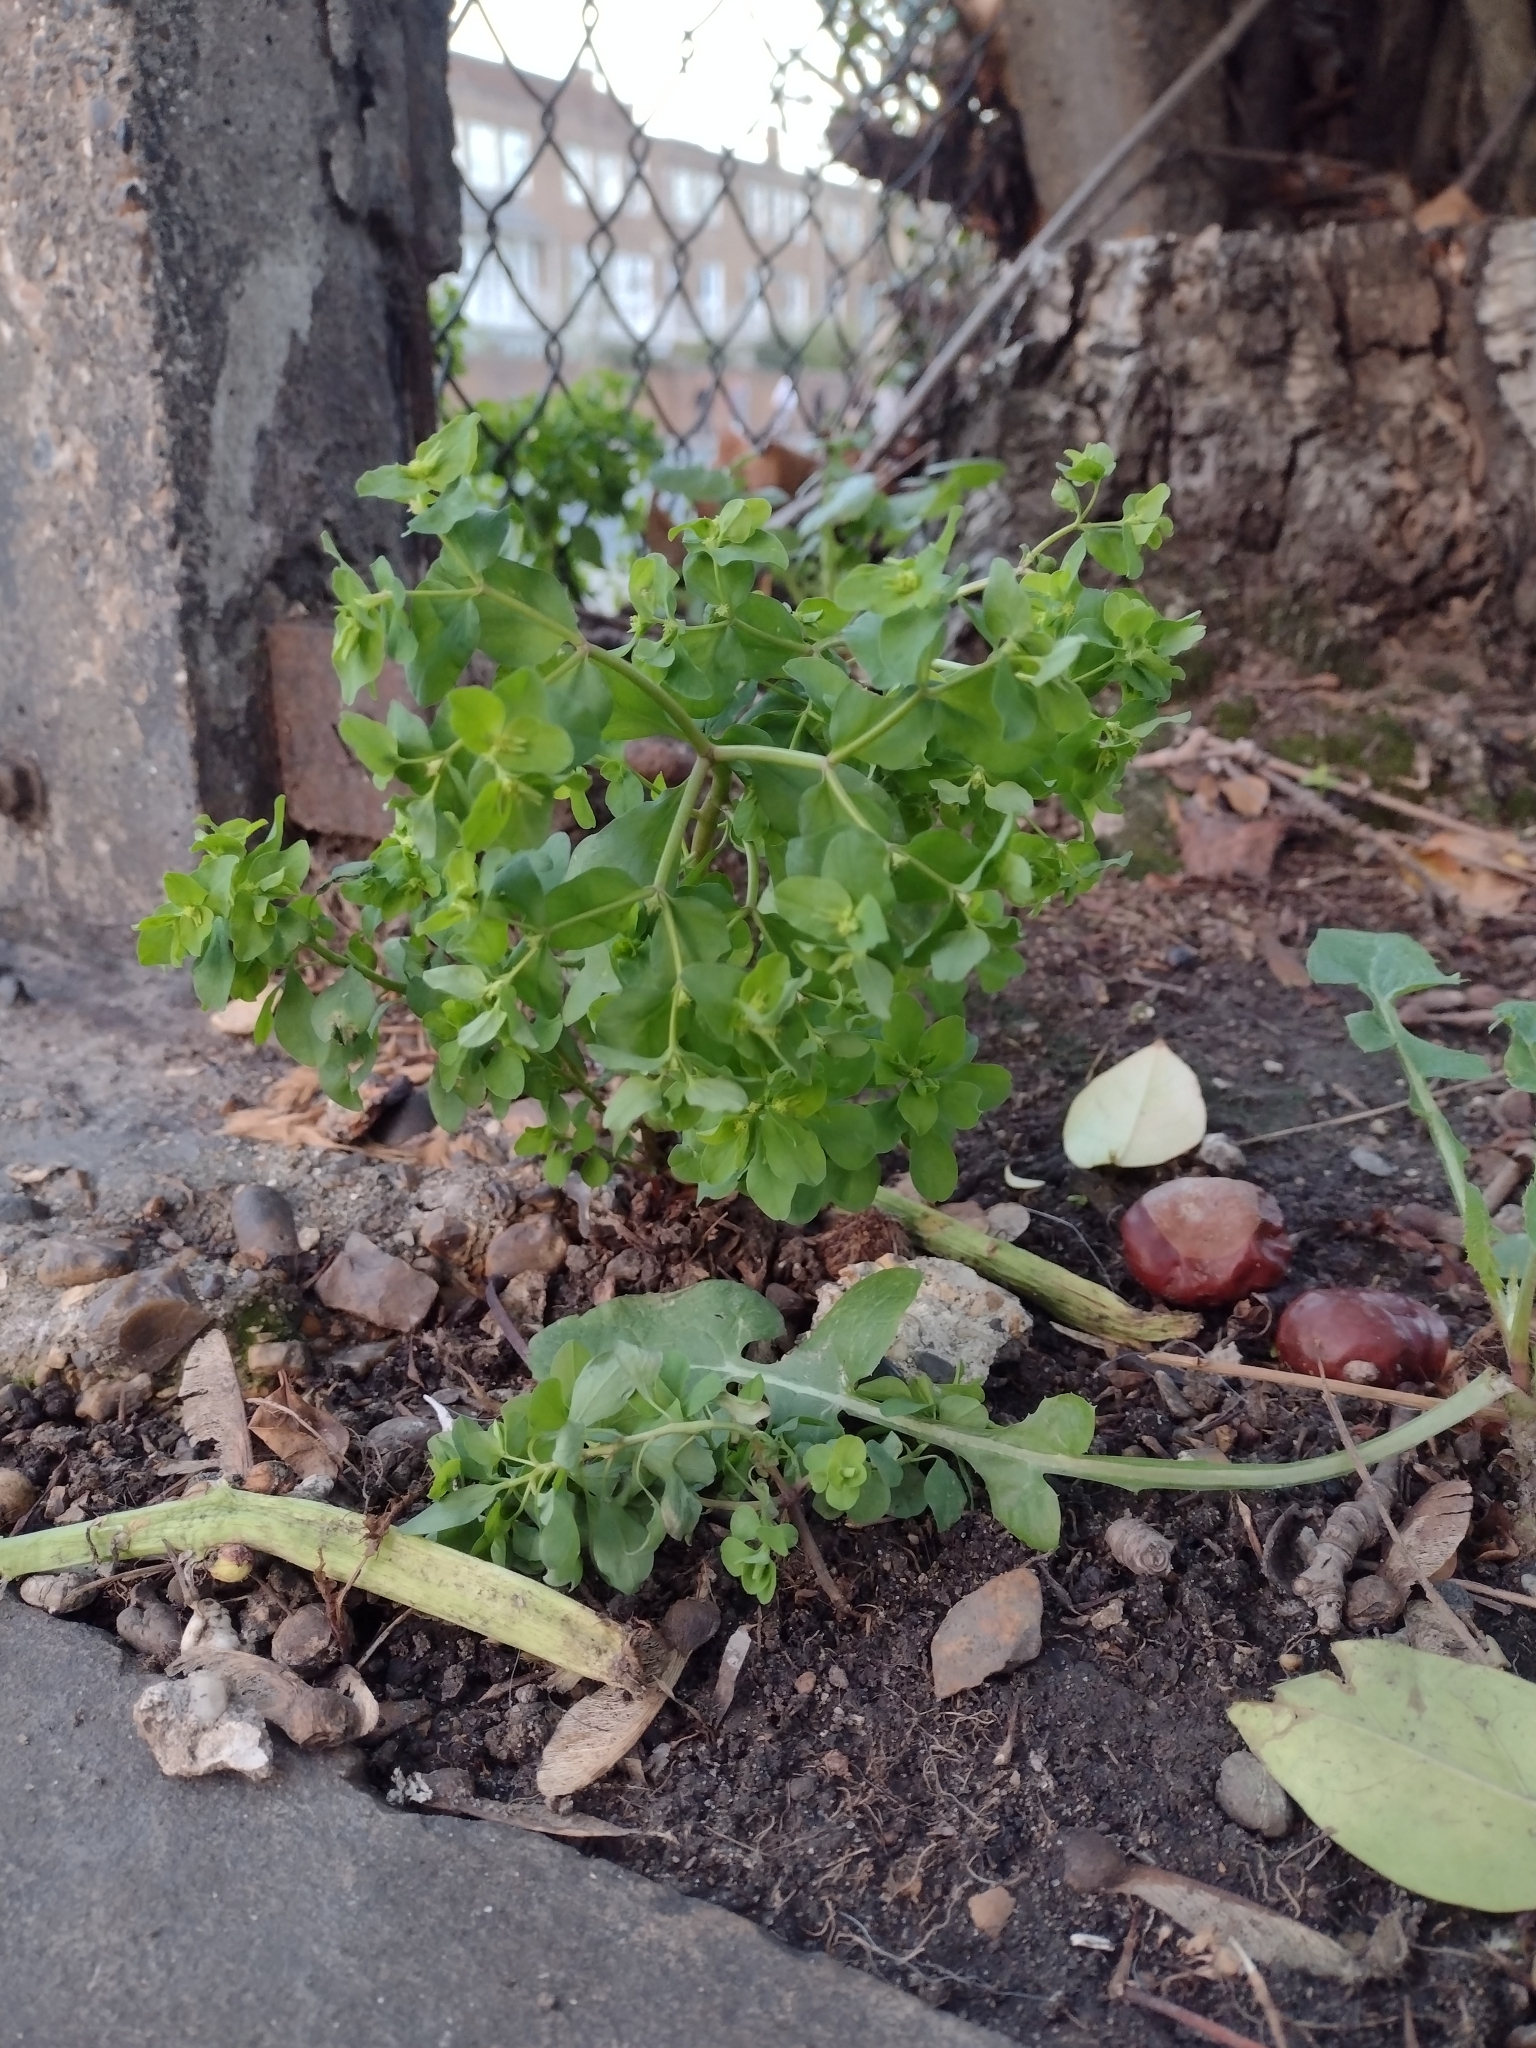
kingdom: Plantae
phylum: Tracheophyta
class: Magnoliopsida
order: Malpighiales
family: Euphorbiaceae
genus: Euphorbia
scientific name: Euphorbia peplus
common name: Petty spurge
